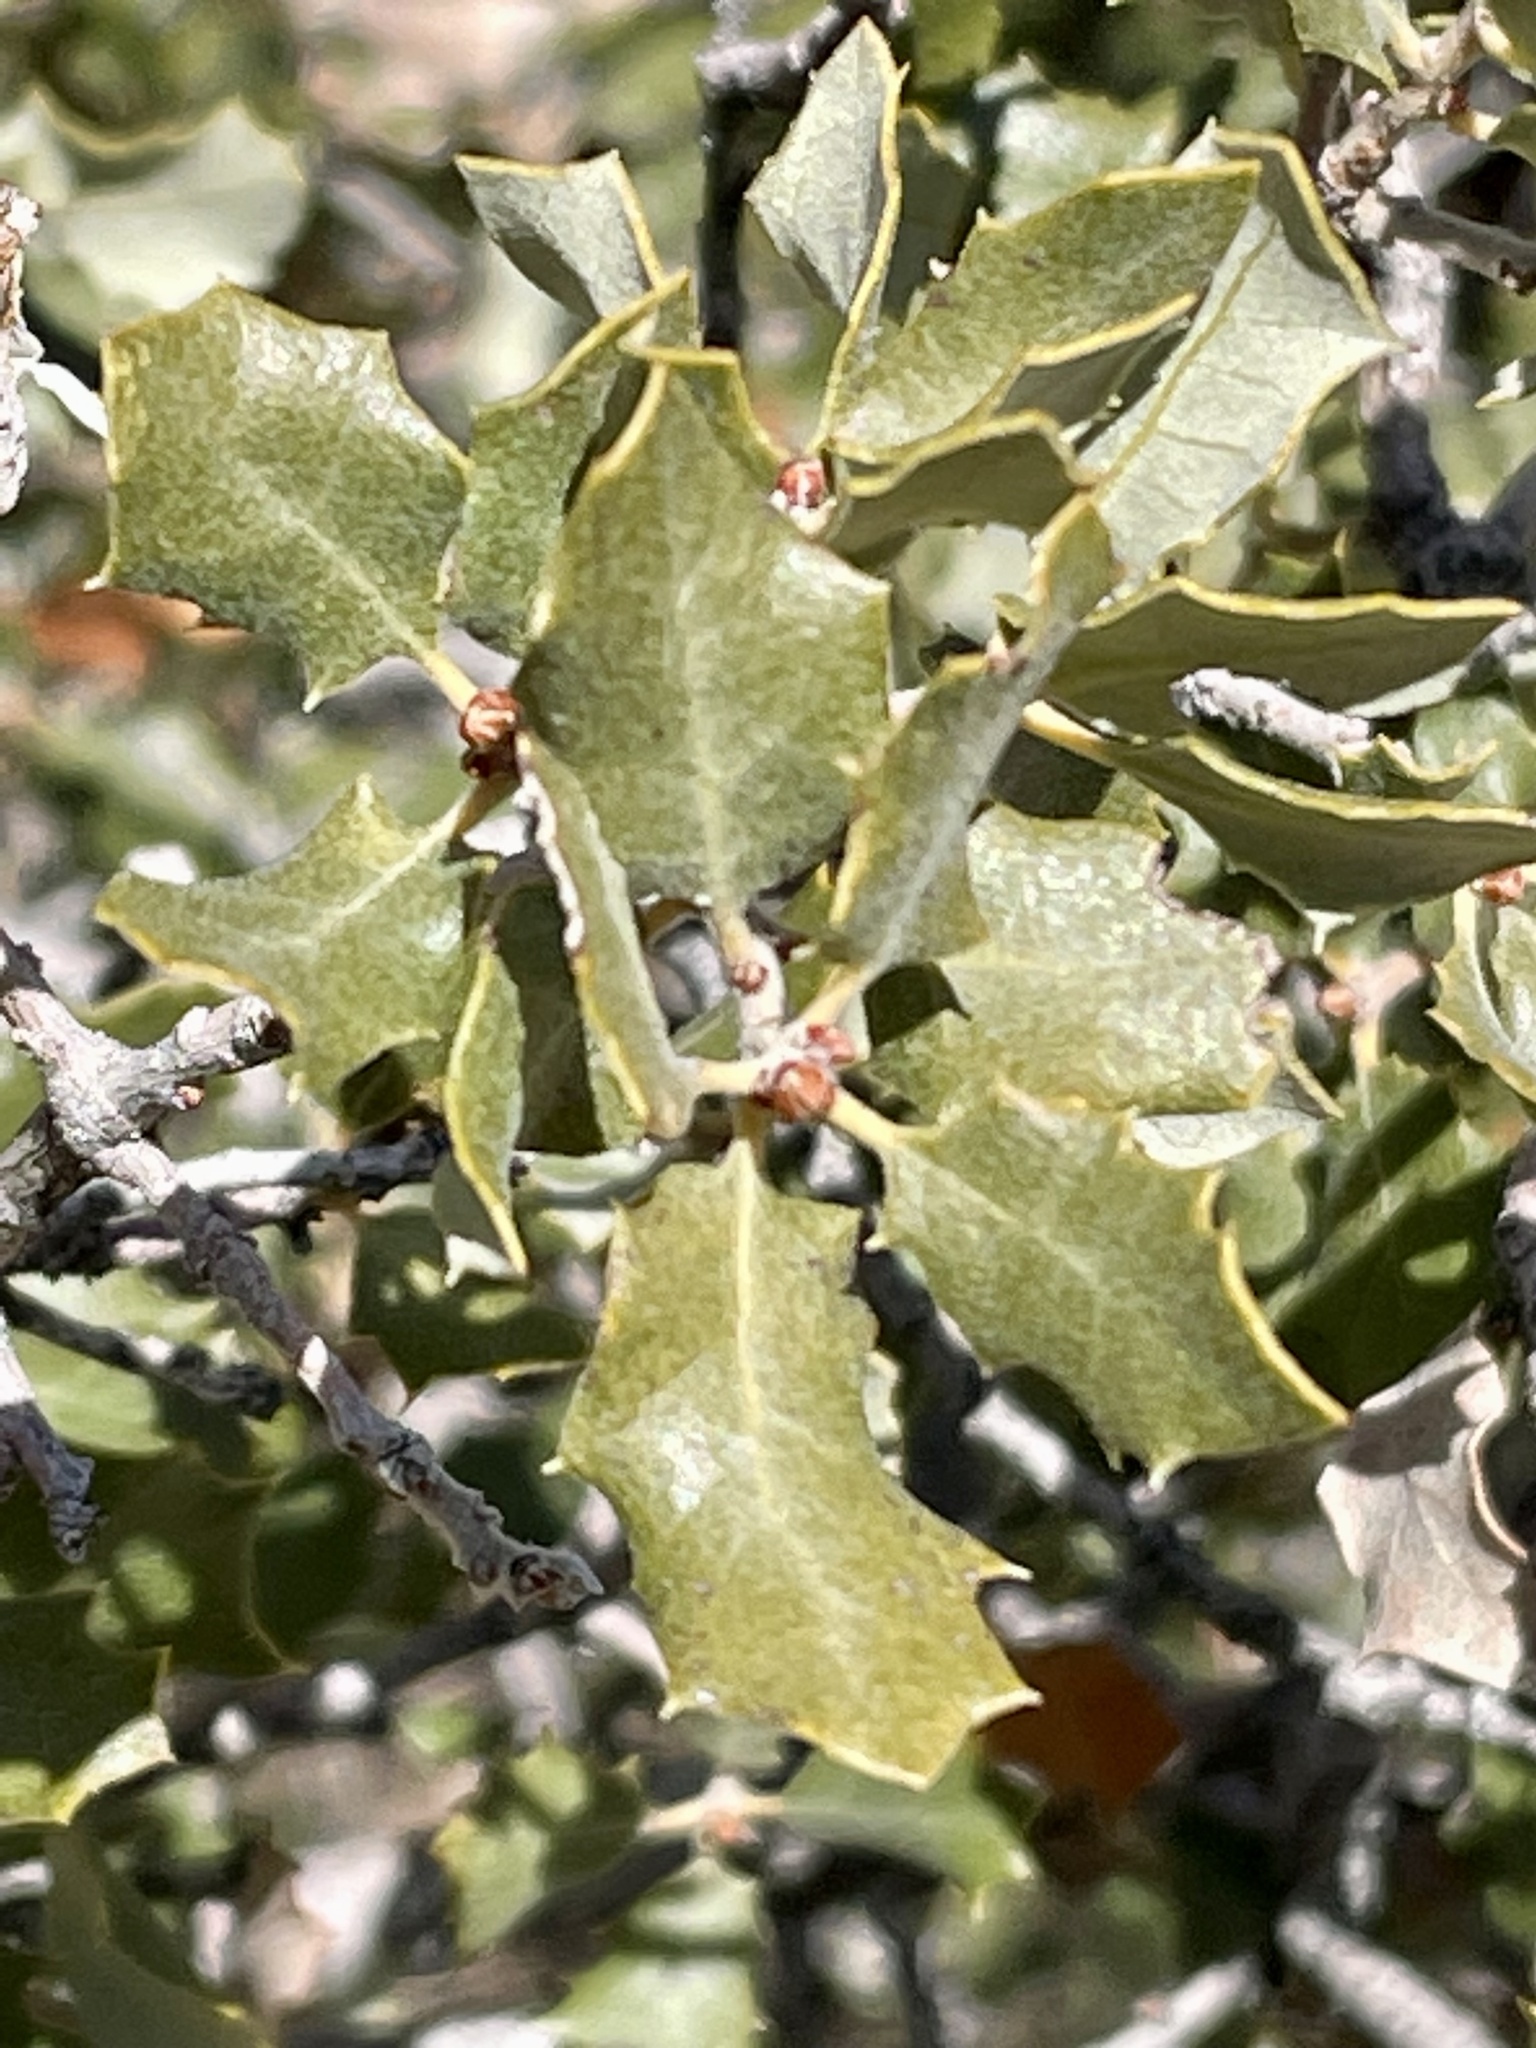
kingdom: Plantae
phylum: Tracheophyta
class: Magnoliopsida
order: Fagales
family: Fagaceae
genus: Quercus
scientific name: Quercus cornelius-mulleri
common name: Muller oak
